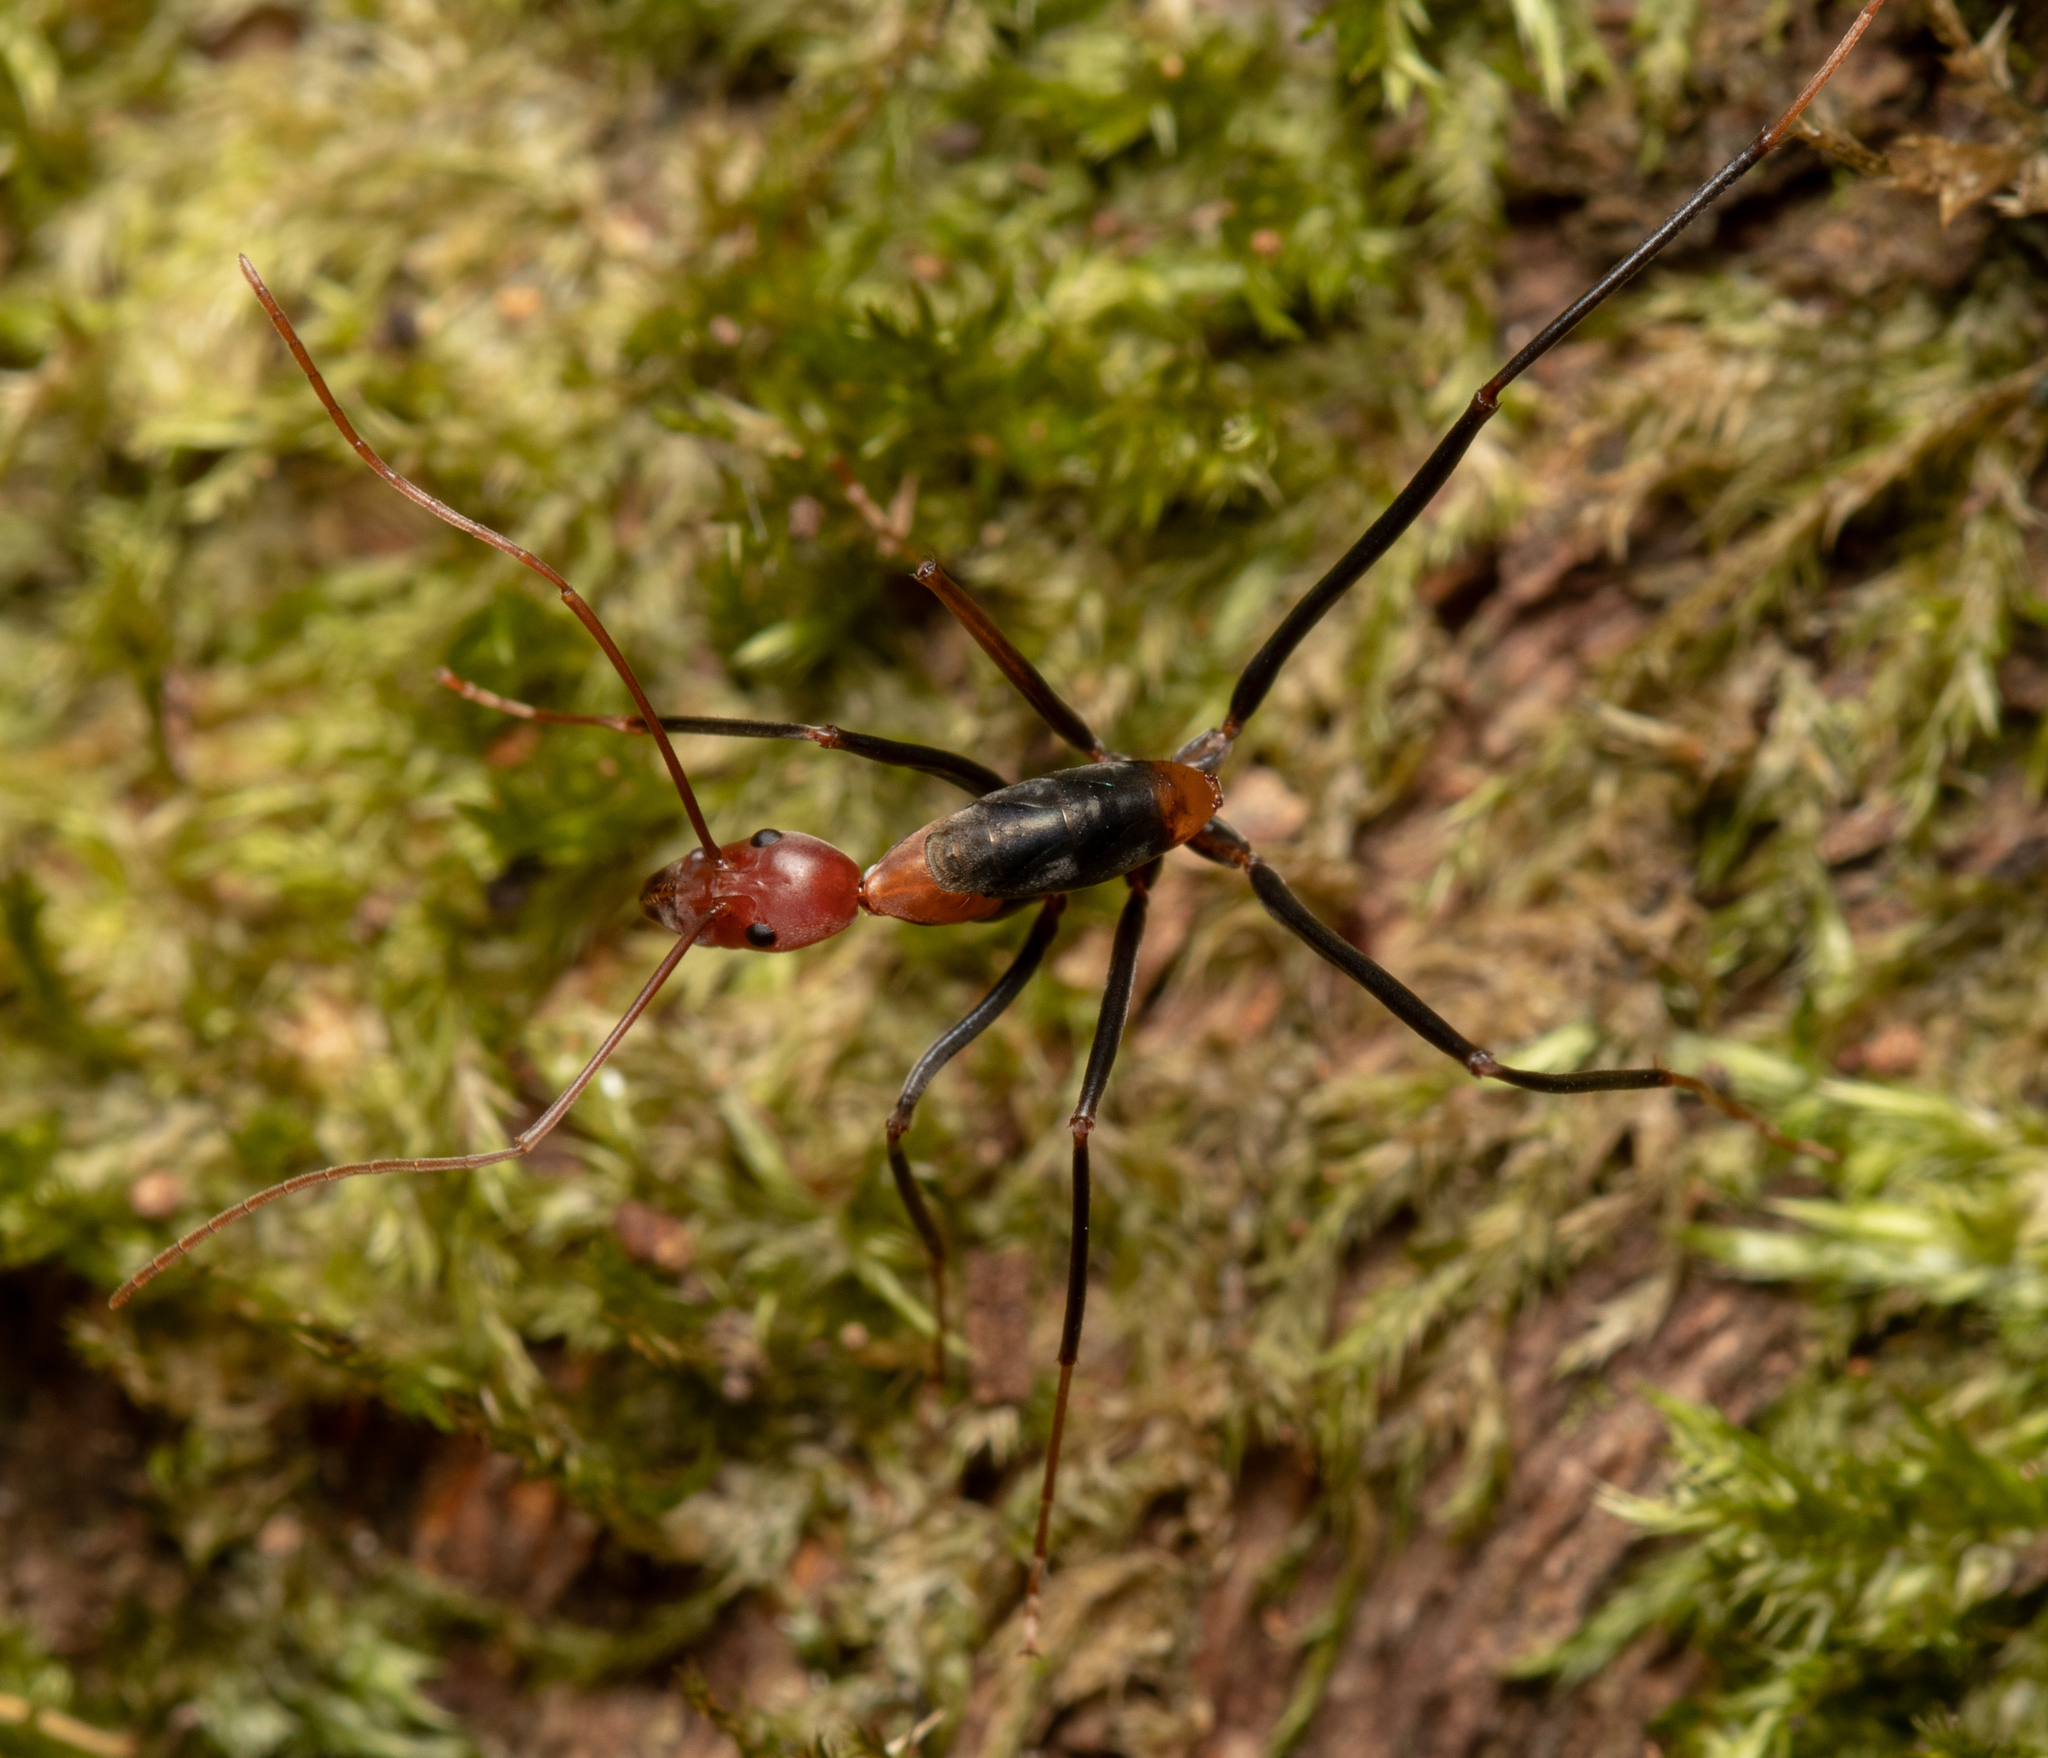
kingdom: Animalia
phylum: Arthropoda
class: Insecta
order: Hymenoptera
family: Formicidae
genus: Leptomyrmex
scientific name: Leptomyrmex rufithorax
